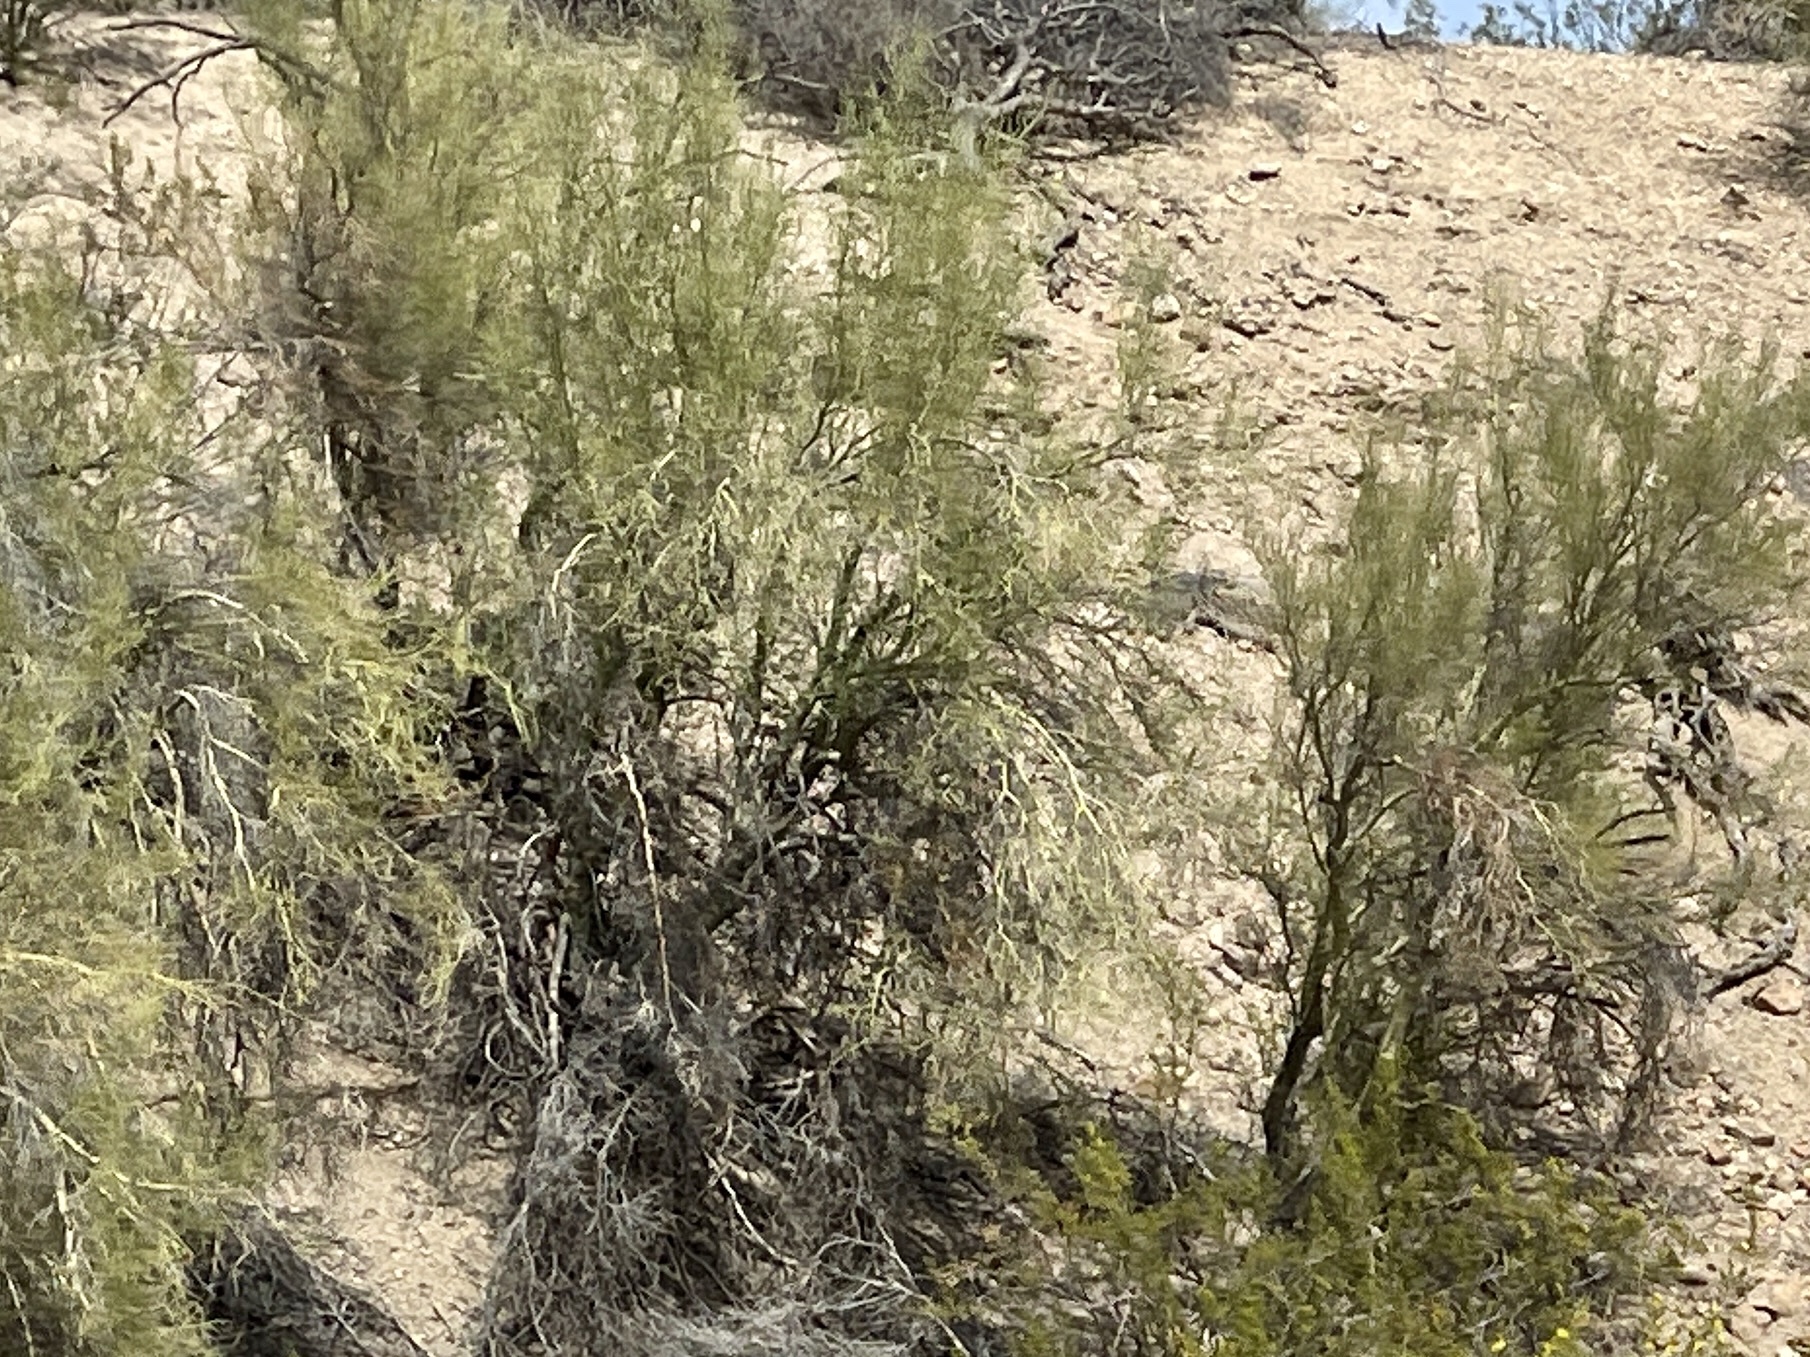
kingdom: Plantae
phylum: Tracheophyta
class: Magnoliopsida
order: Fabales
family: Fabaceae
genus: Parkinsonia
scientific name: Parkinsonia microphylla
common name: Yellow paloverde
